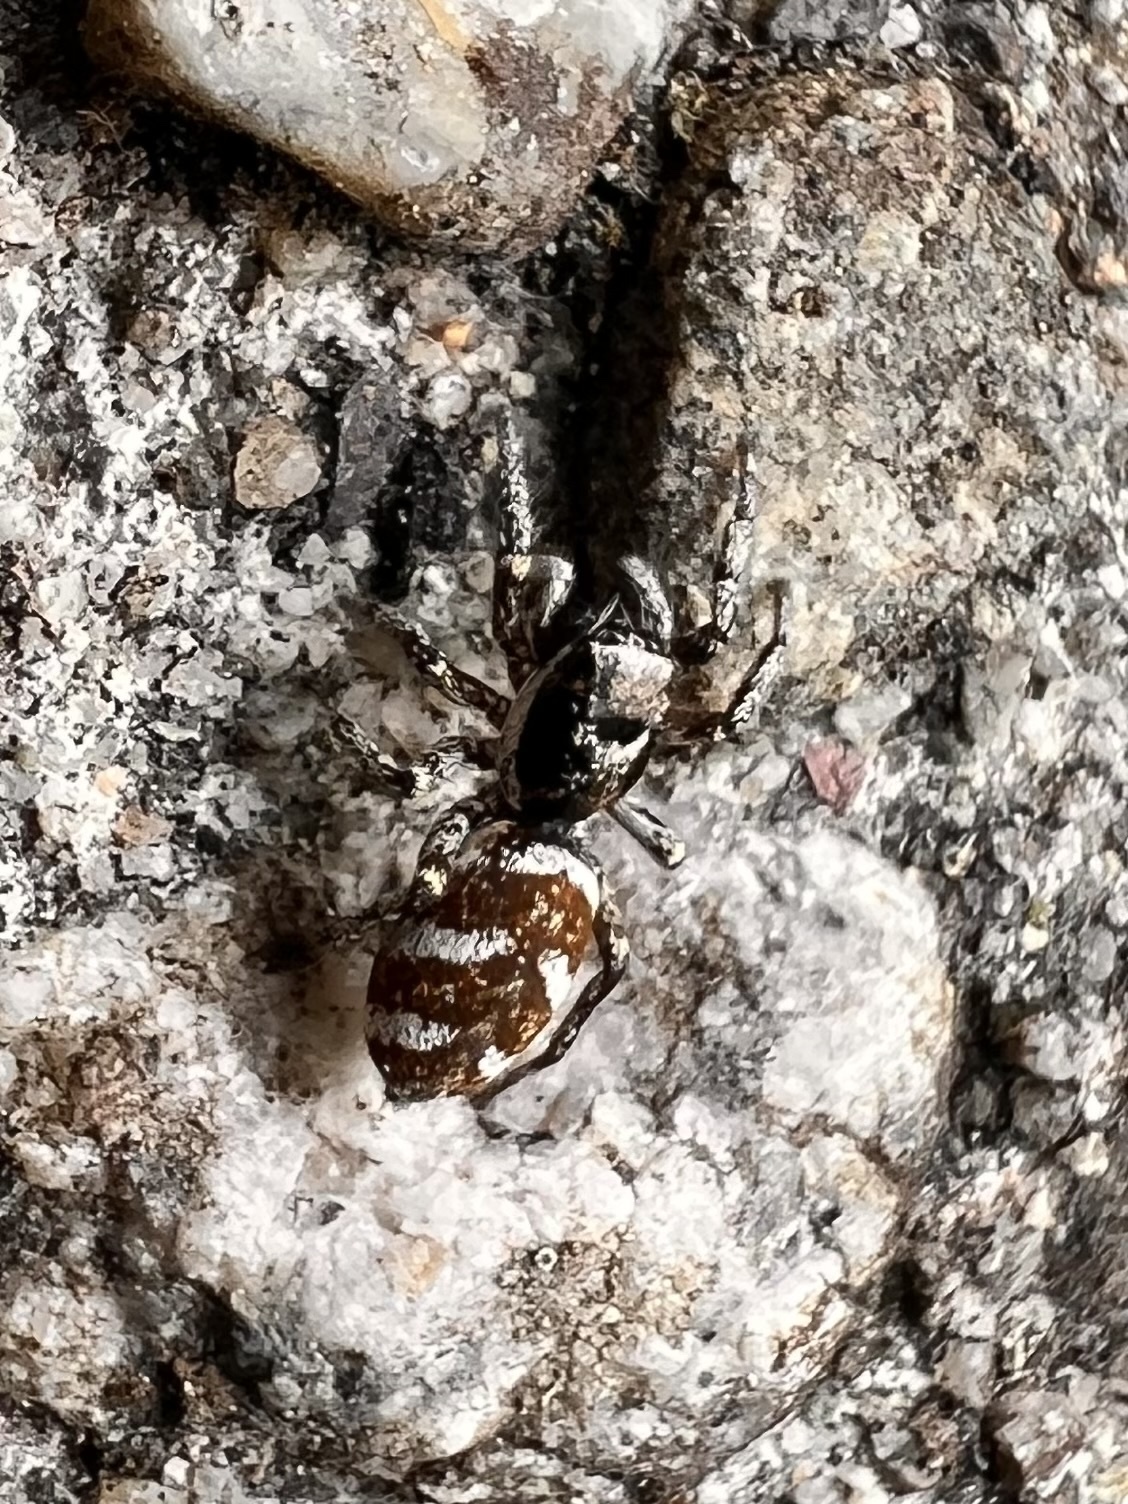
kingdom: Animalia
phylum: Arthropoda
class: Arachnida
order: Araneae
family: Salticidae
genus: Salticus
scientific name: Salticus scenicus
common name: Zebra jumper
